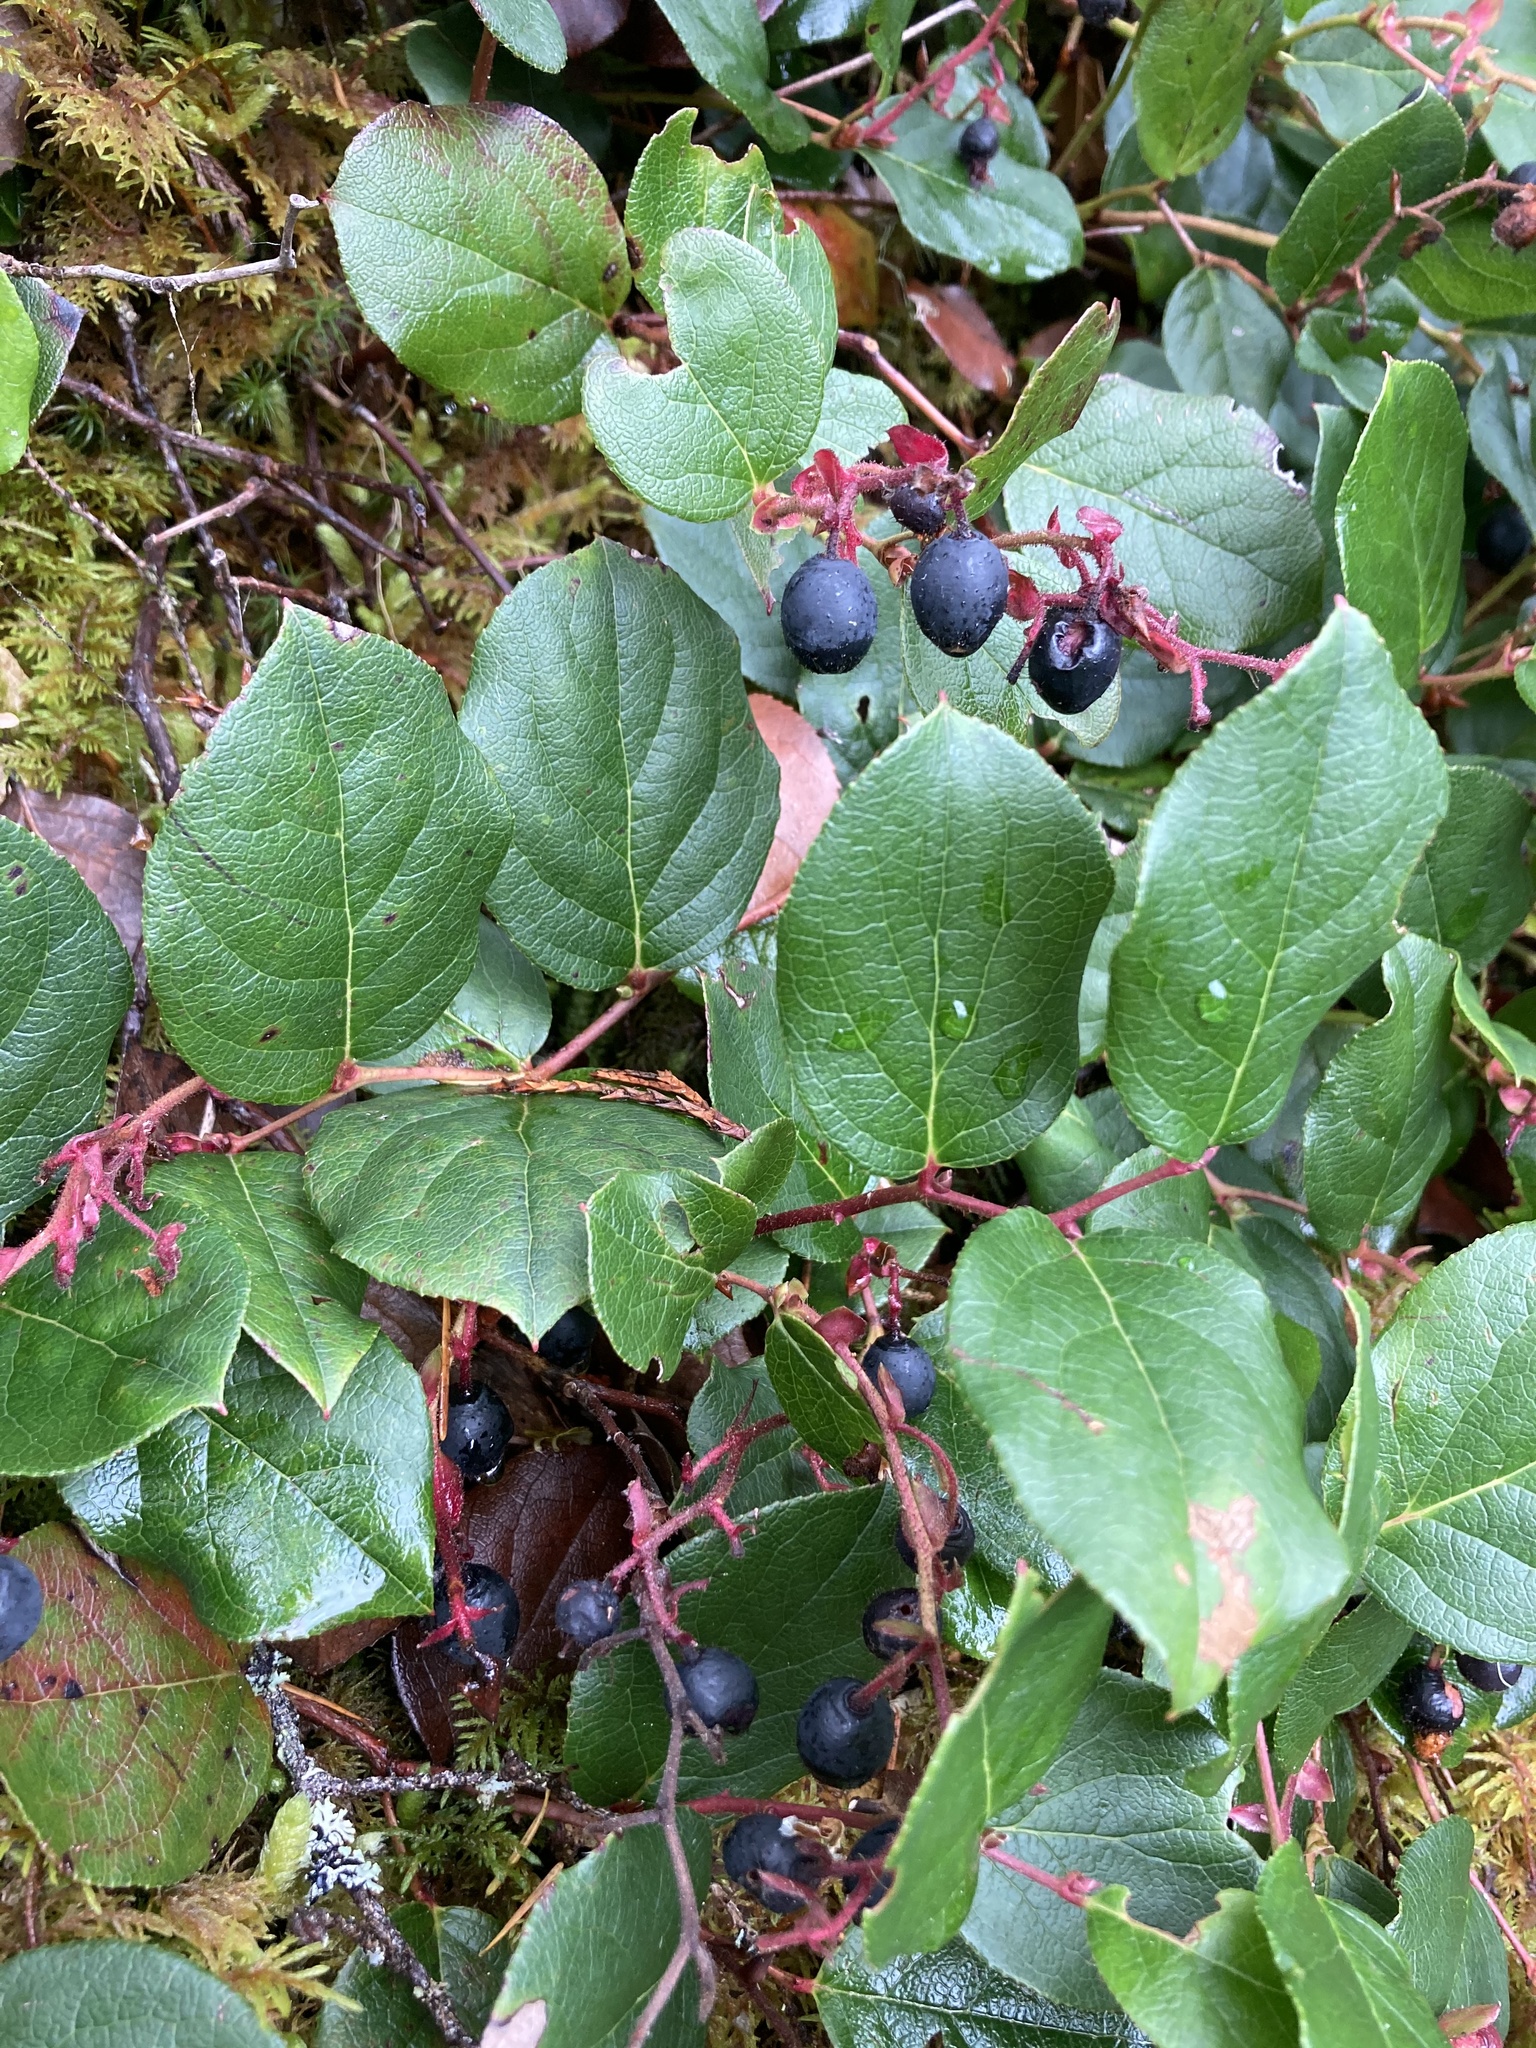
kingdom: Plantae
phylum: Tracheophyta
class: Magnoliopsida
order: Ericales
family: Ericaceae
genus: Gaultheria
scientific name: Gaultheria shallon
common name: Shallon
